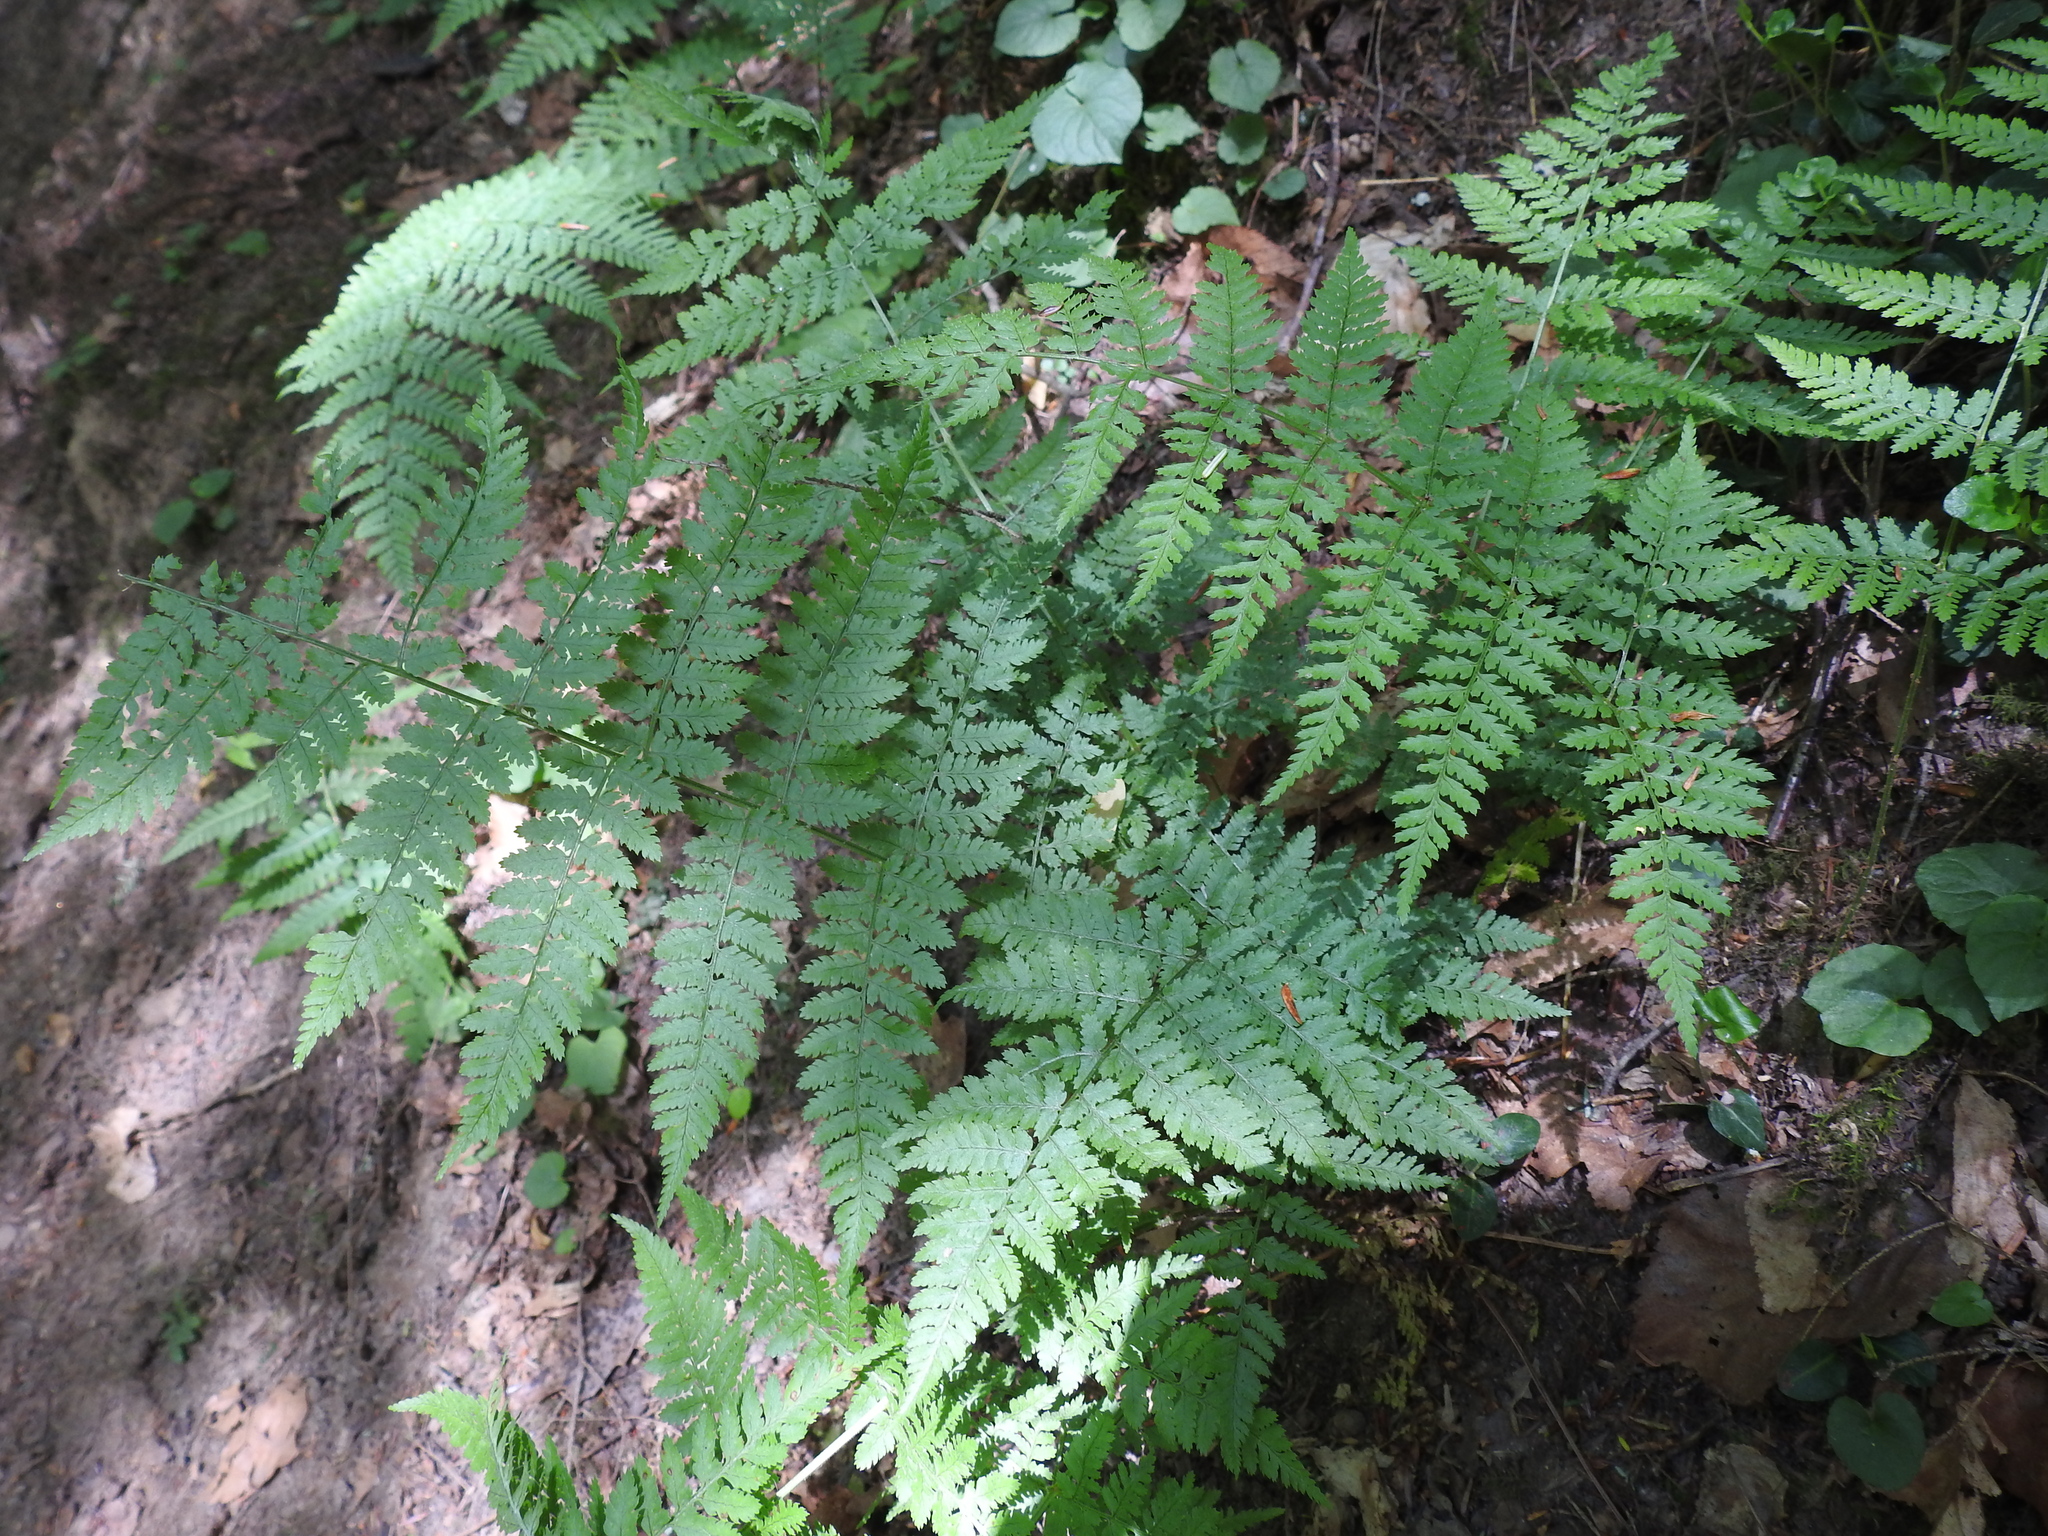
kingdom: Plantae
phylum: Tracheophyta
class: Polypodiopsida
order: Polypodiales
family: Dryopteridaceae
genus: Dryopteris
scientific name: Dryopteris intermedia
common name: Evergreen wood fern
